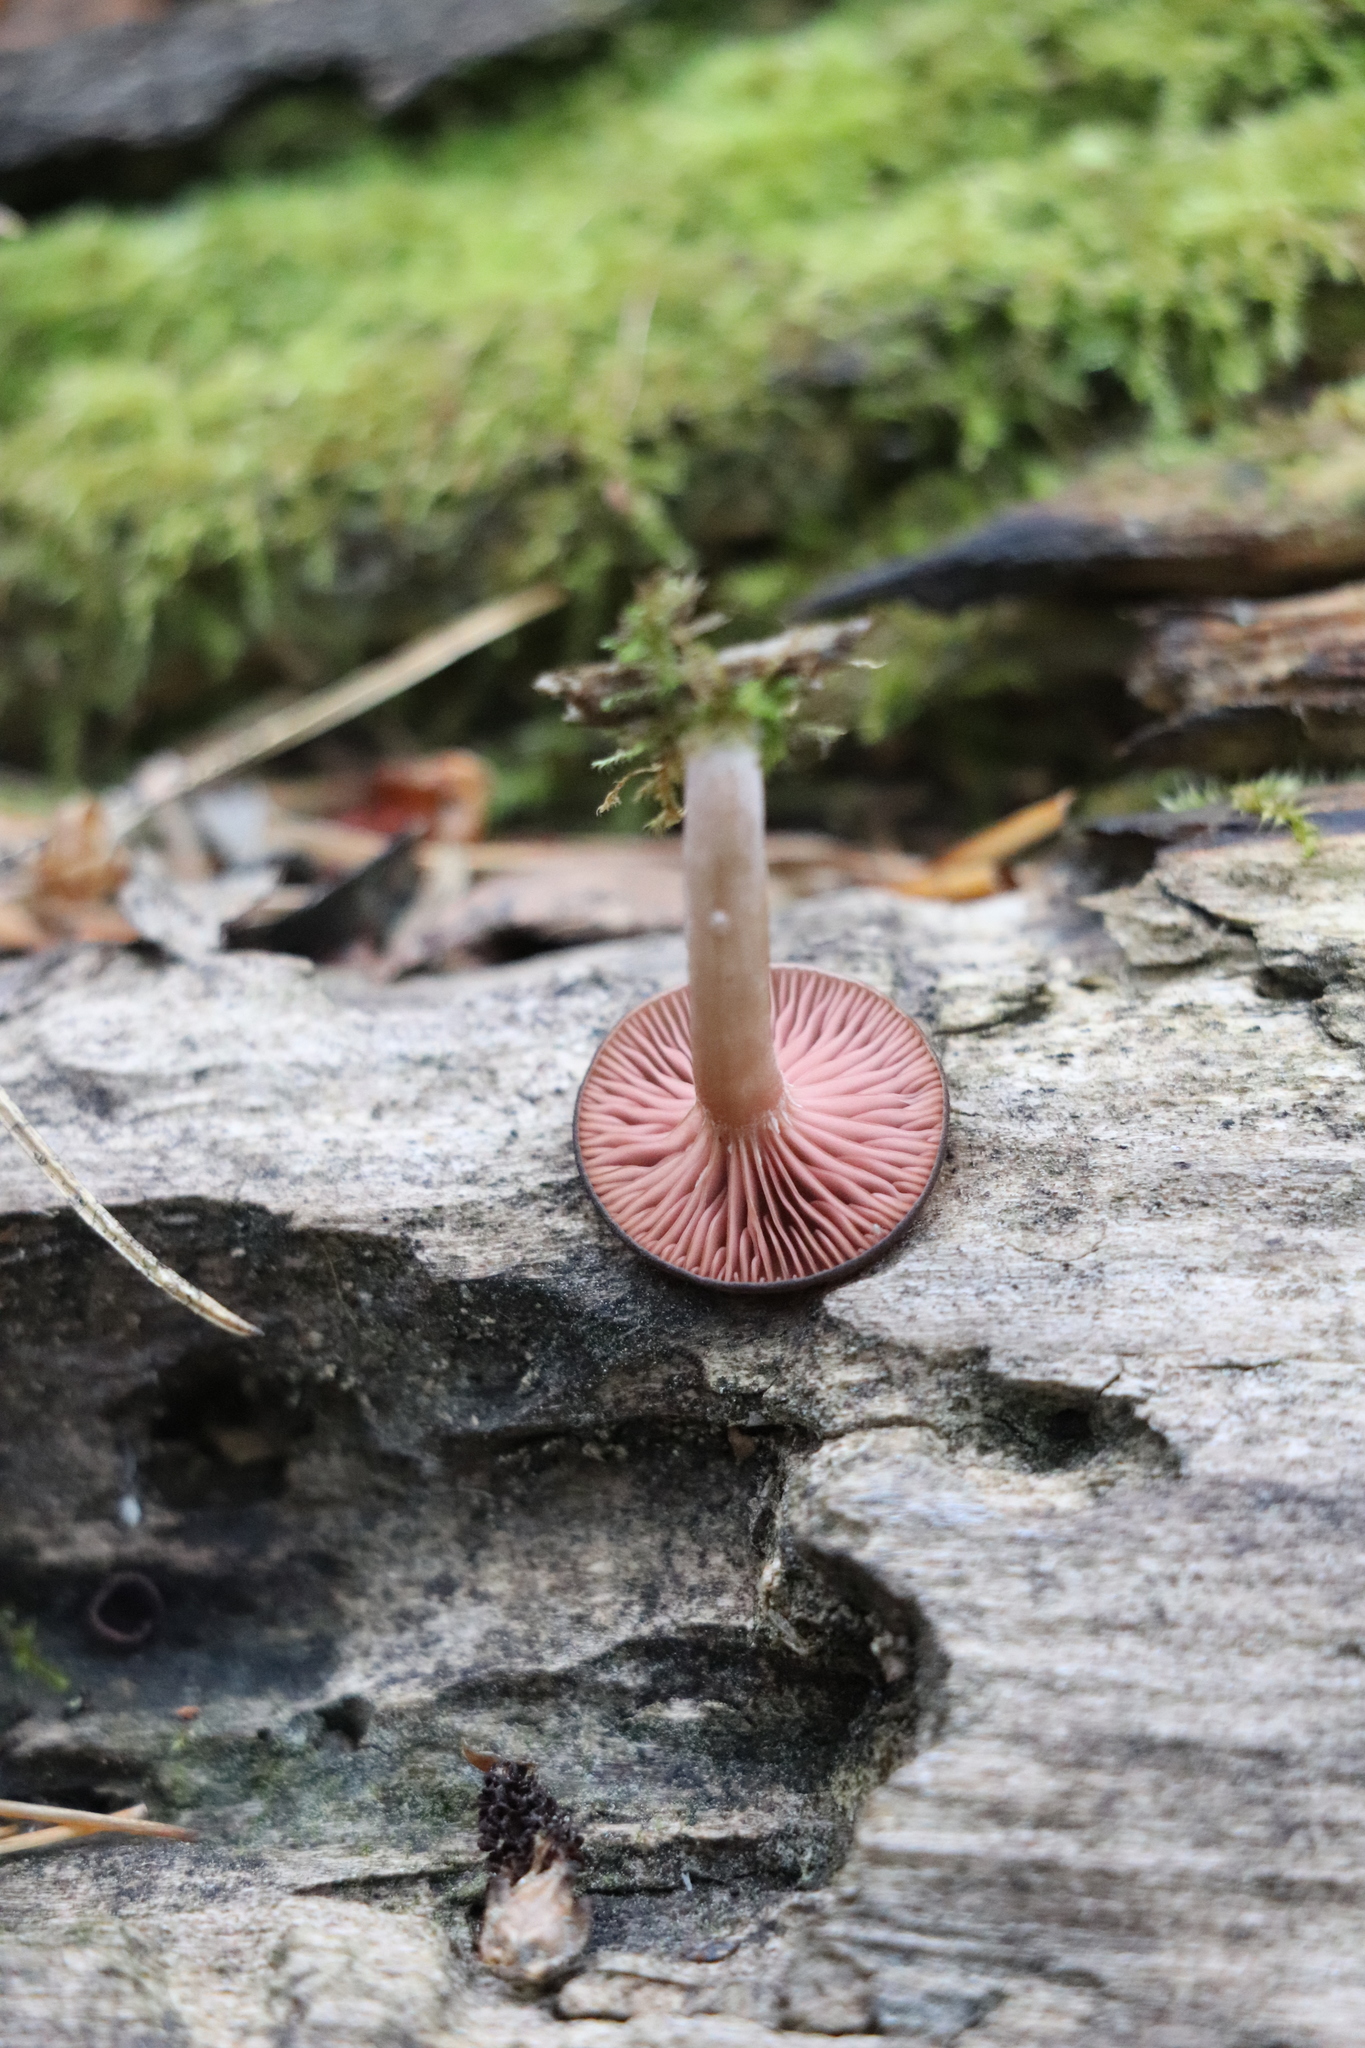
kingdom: Fungi
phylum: Basidiomycota
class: Agaricomycetes
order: Agaricales
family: Hygrophoraceae
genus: Arrhenia
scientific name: Arrhenia discorosea
